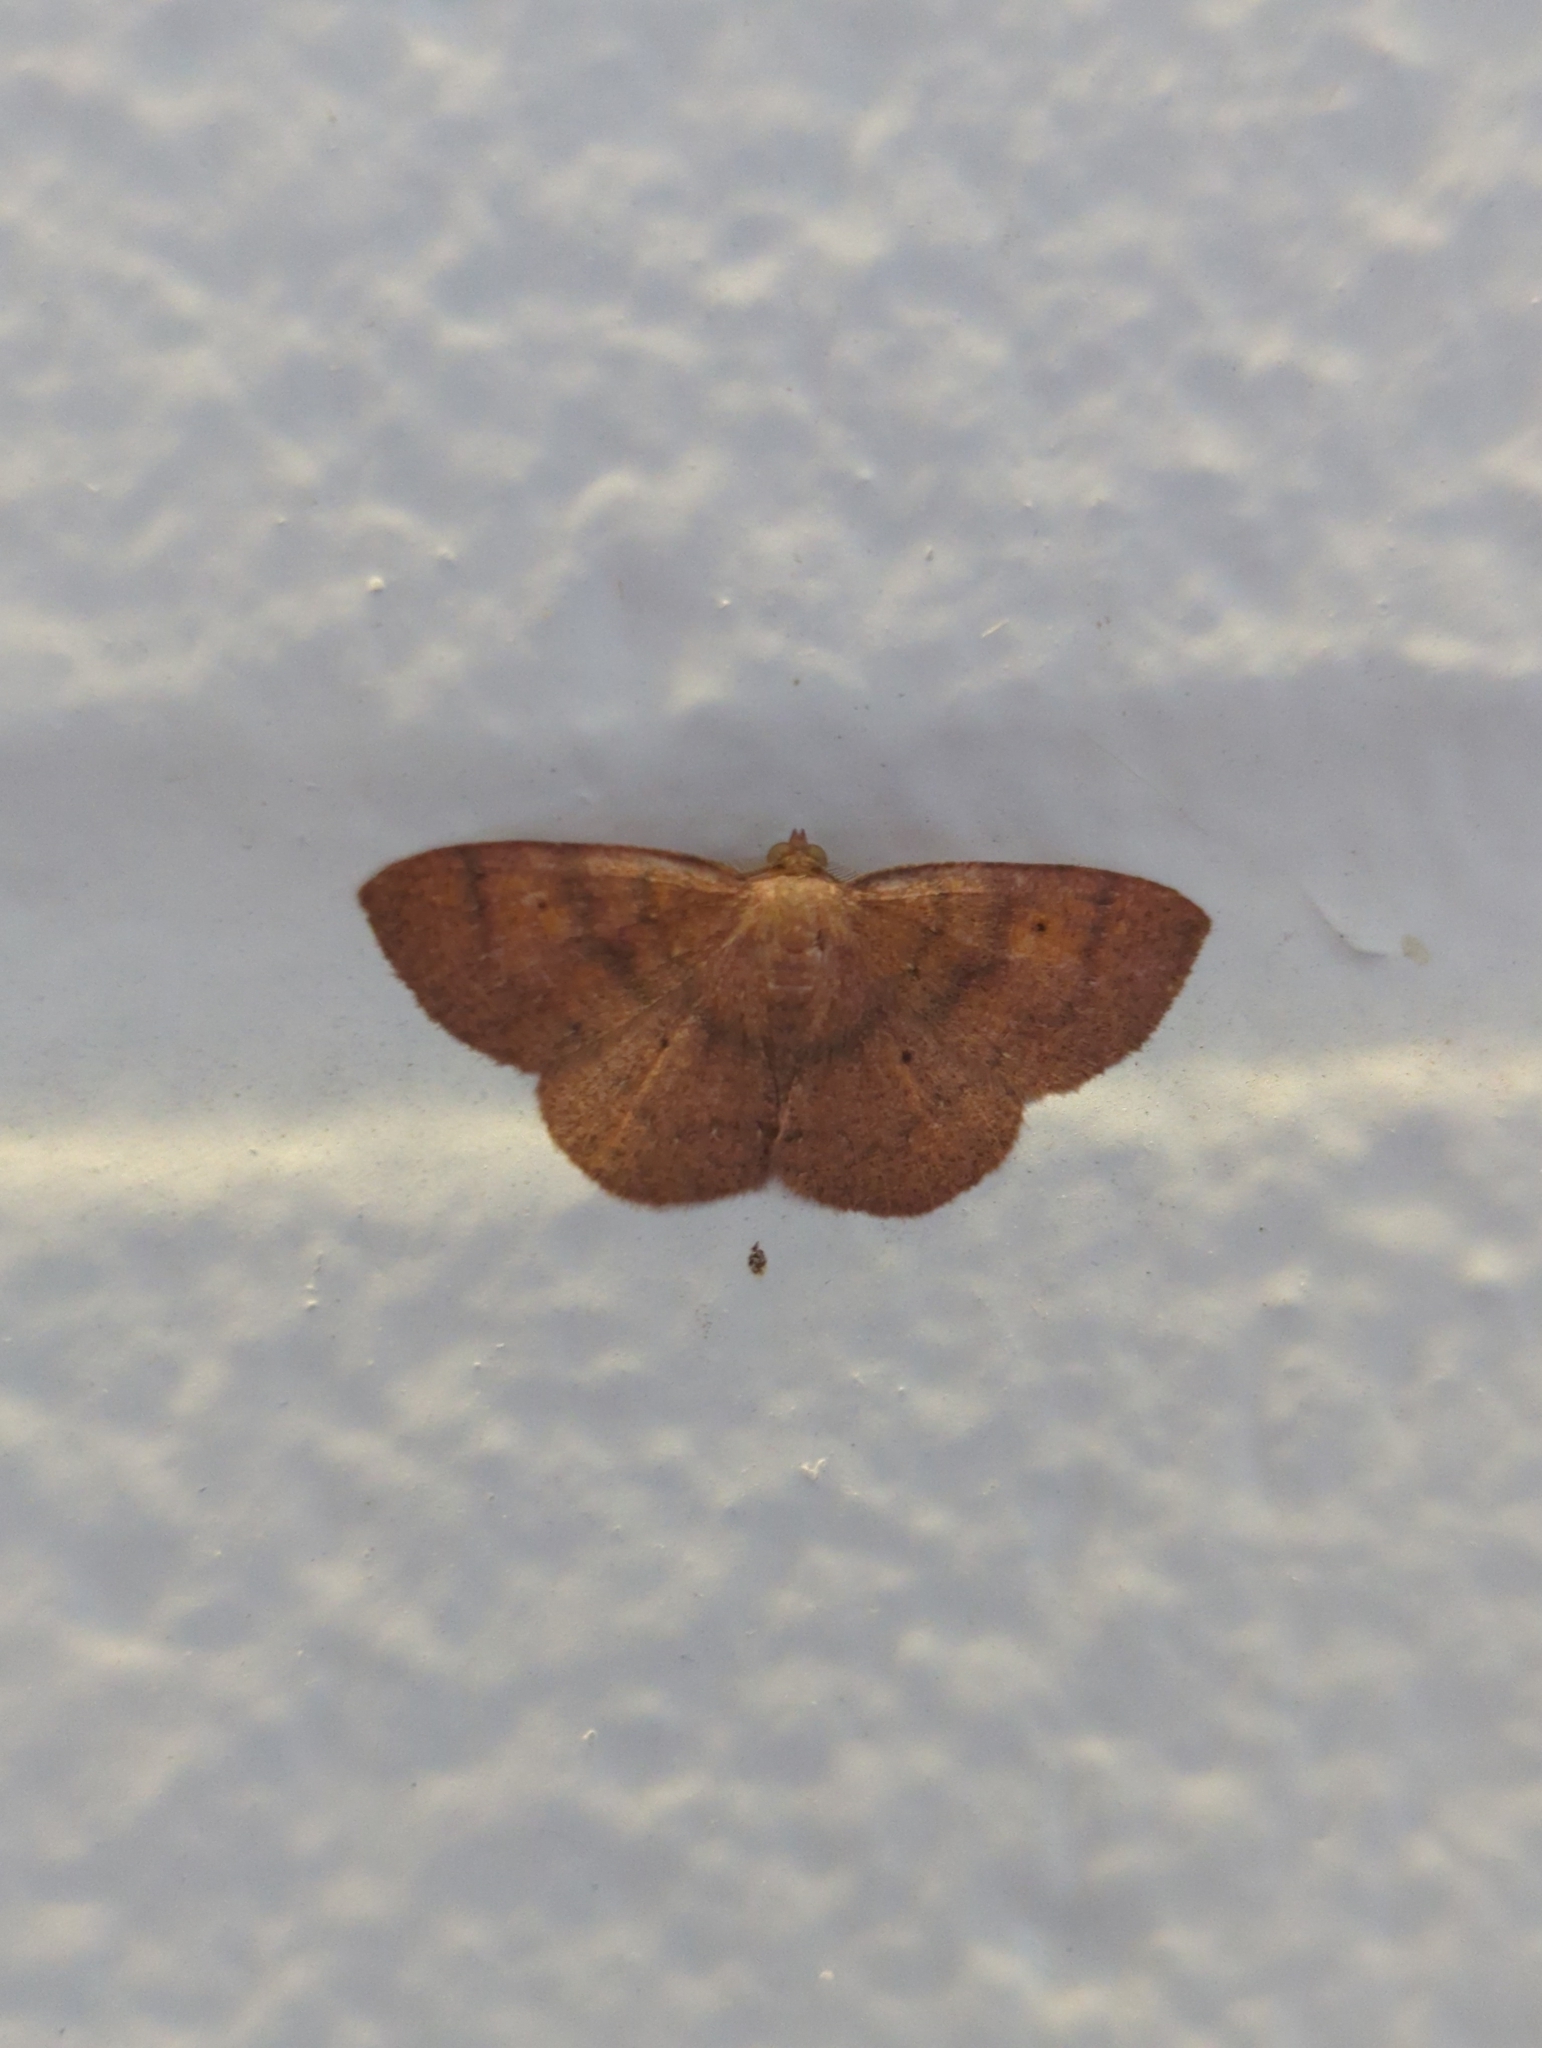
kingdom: Animalia
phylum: Arthropoda
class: Insecta
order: Lepidoptera
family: Geometridae
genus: Ilexia
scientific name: Ilexia intractata
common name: Black-dotted ruddy moth
